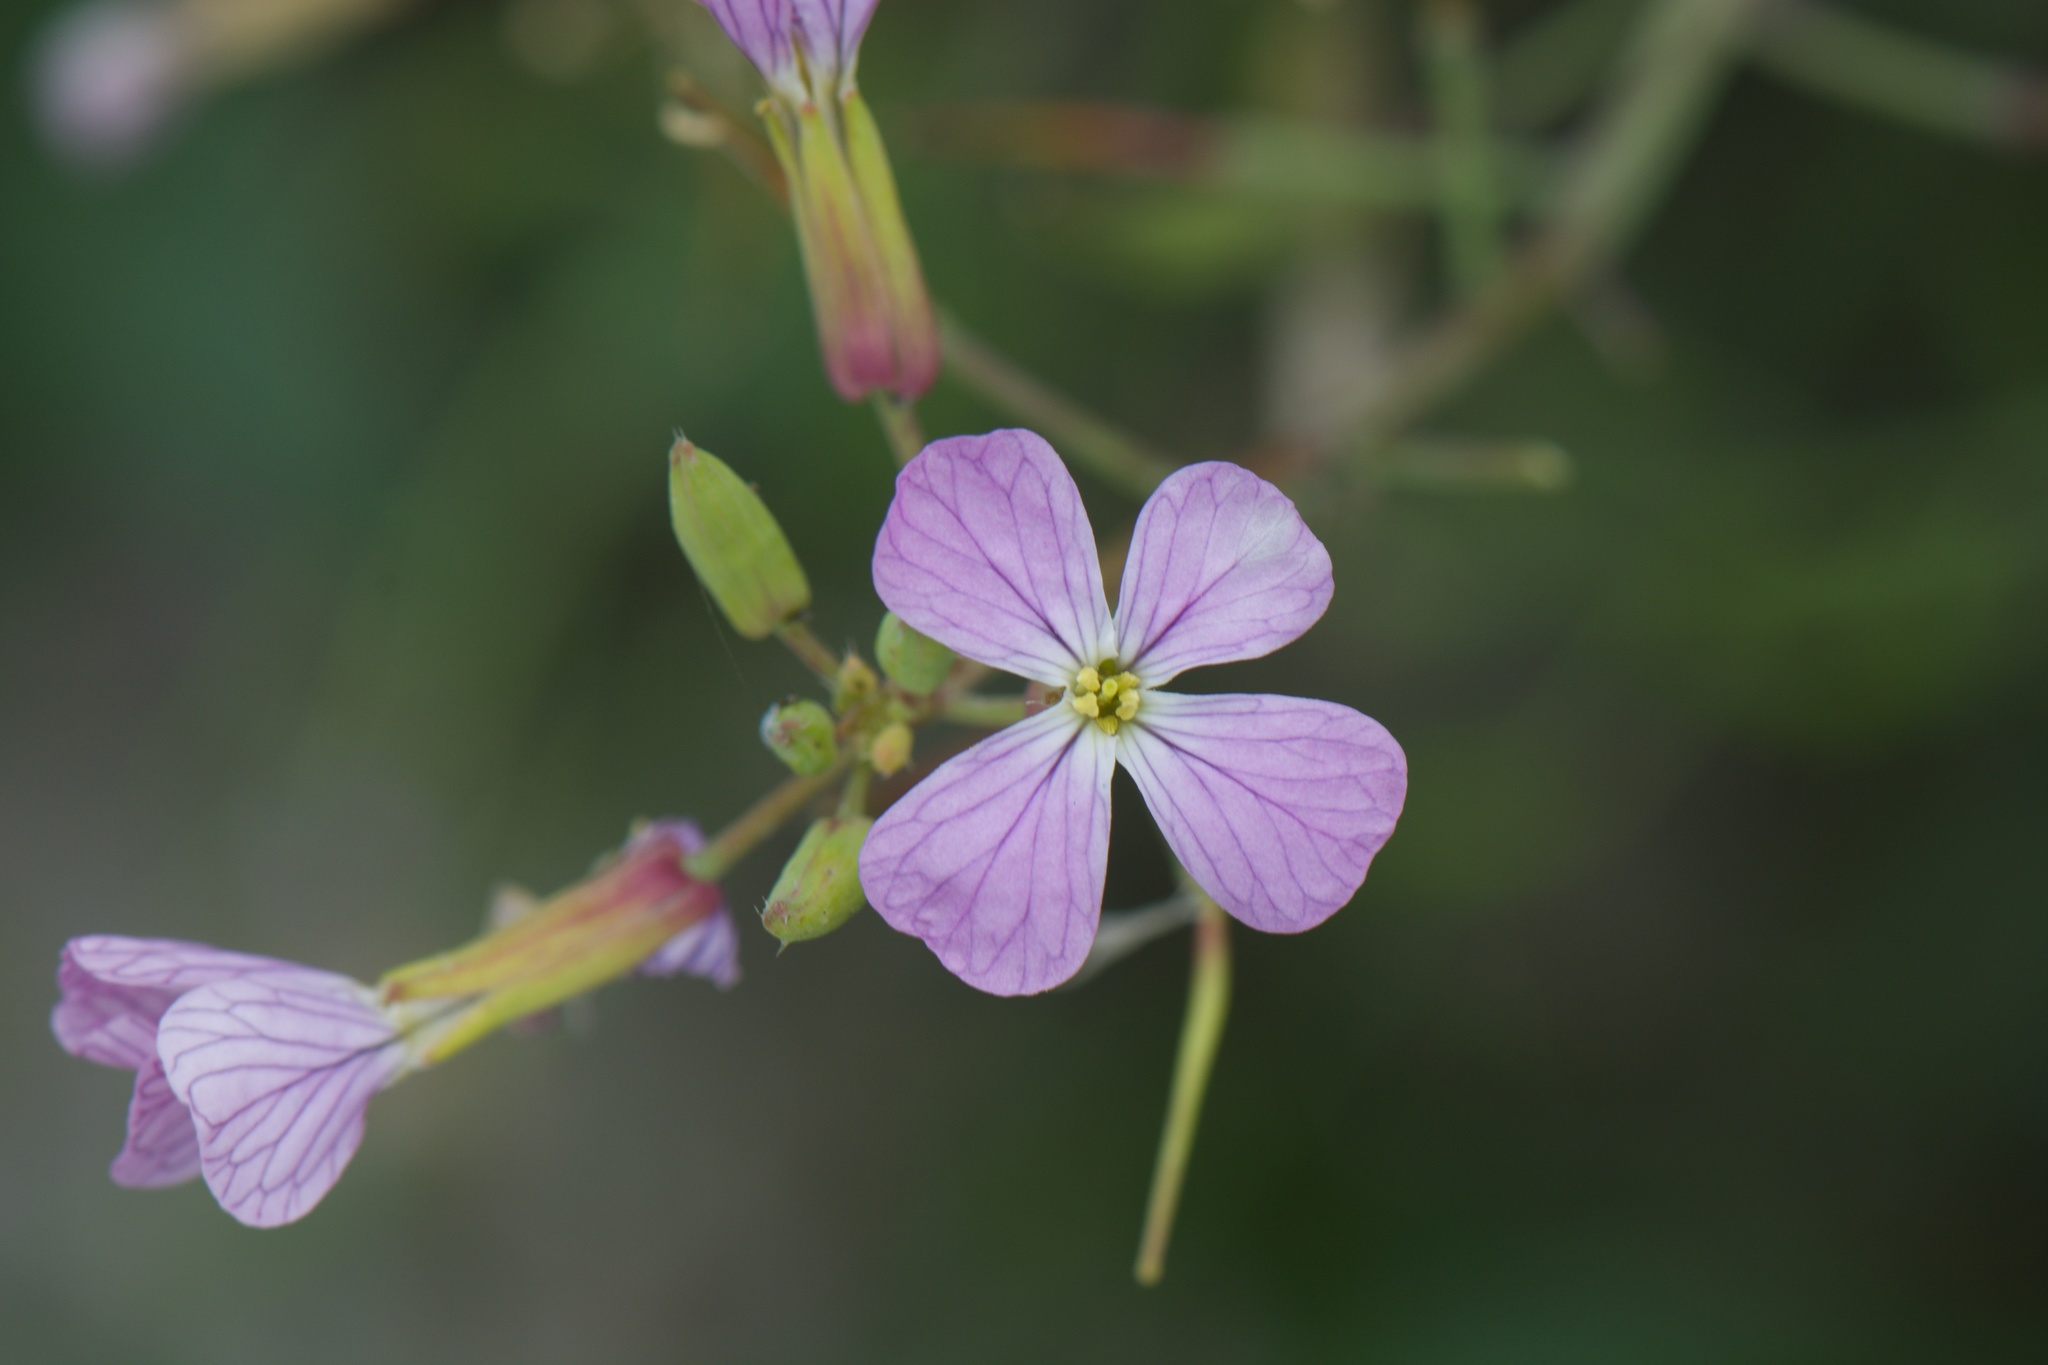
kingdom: Plantae
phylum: Tracheophyta
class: Magnoliopsida
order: Brassicales
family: Brassicaceae
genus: Raphanus
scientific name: Raphanus sativus
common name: Cultivated radish
